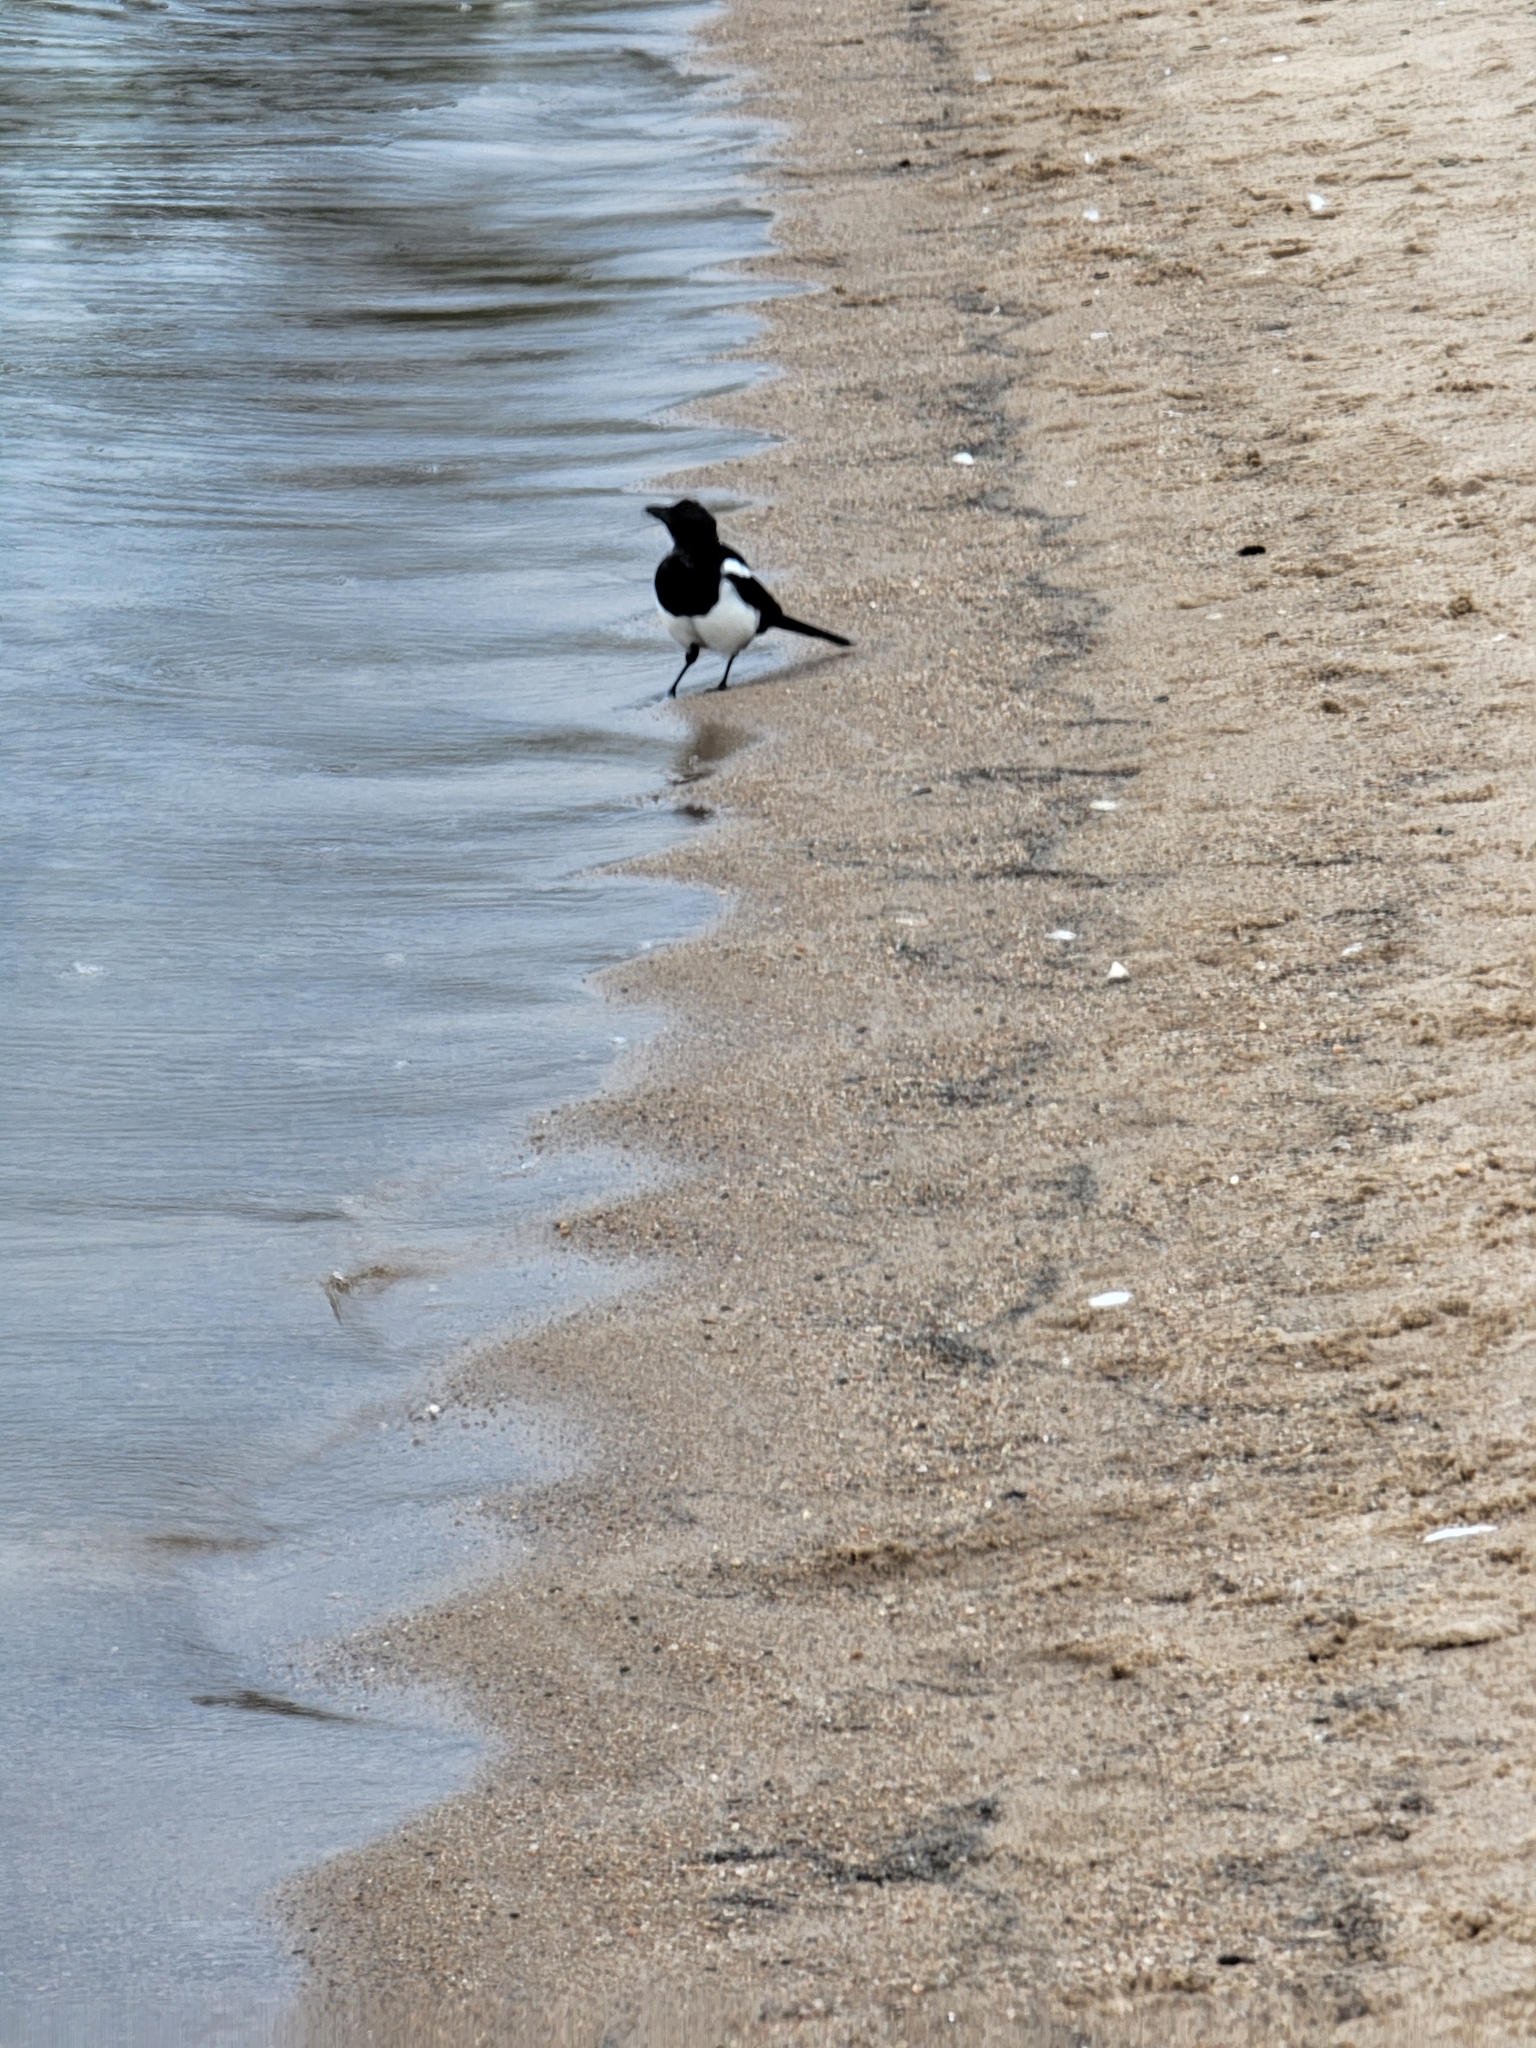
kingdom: Animalia
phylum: Chordata
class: Aves
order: Passeriformes
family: Corvidae
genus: Pica
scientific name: Pica hudsonia
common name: Black-billed magpie
